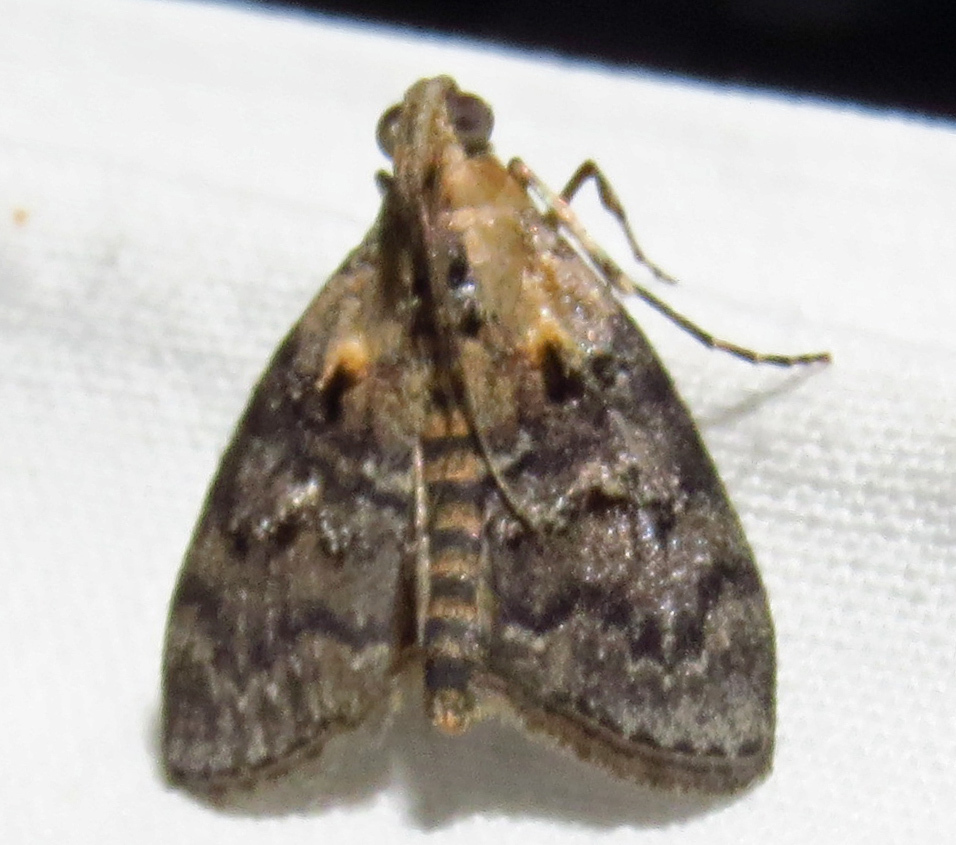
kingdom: Animalia
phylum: Arthropoda
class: Insecta
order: Lepidoptera
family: Pyralidae
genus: Pococera
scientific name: Pococera expandens
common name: Striped oak webworm moth
